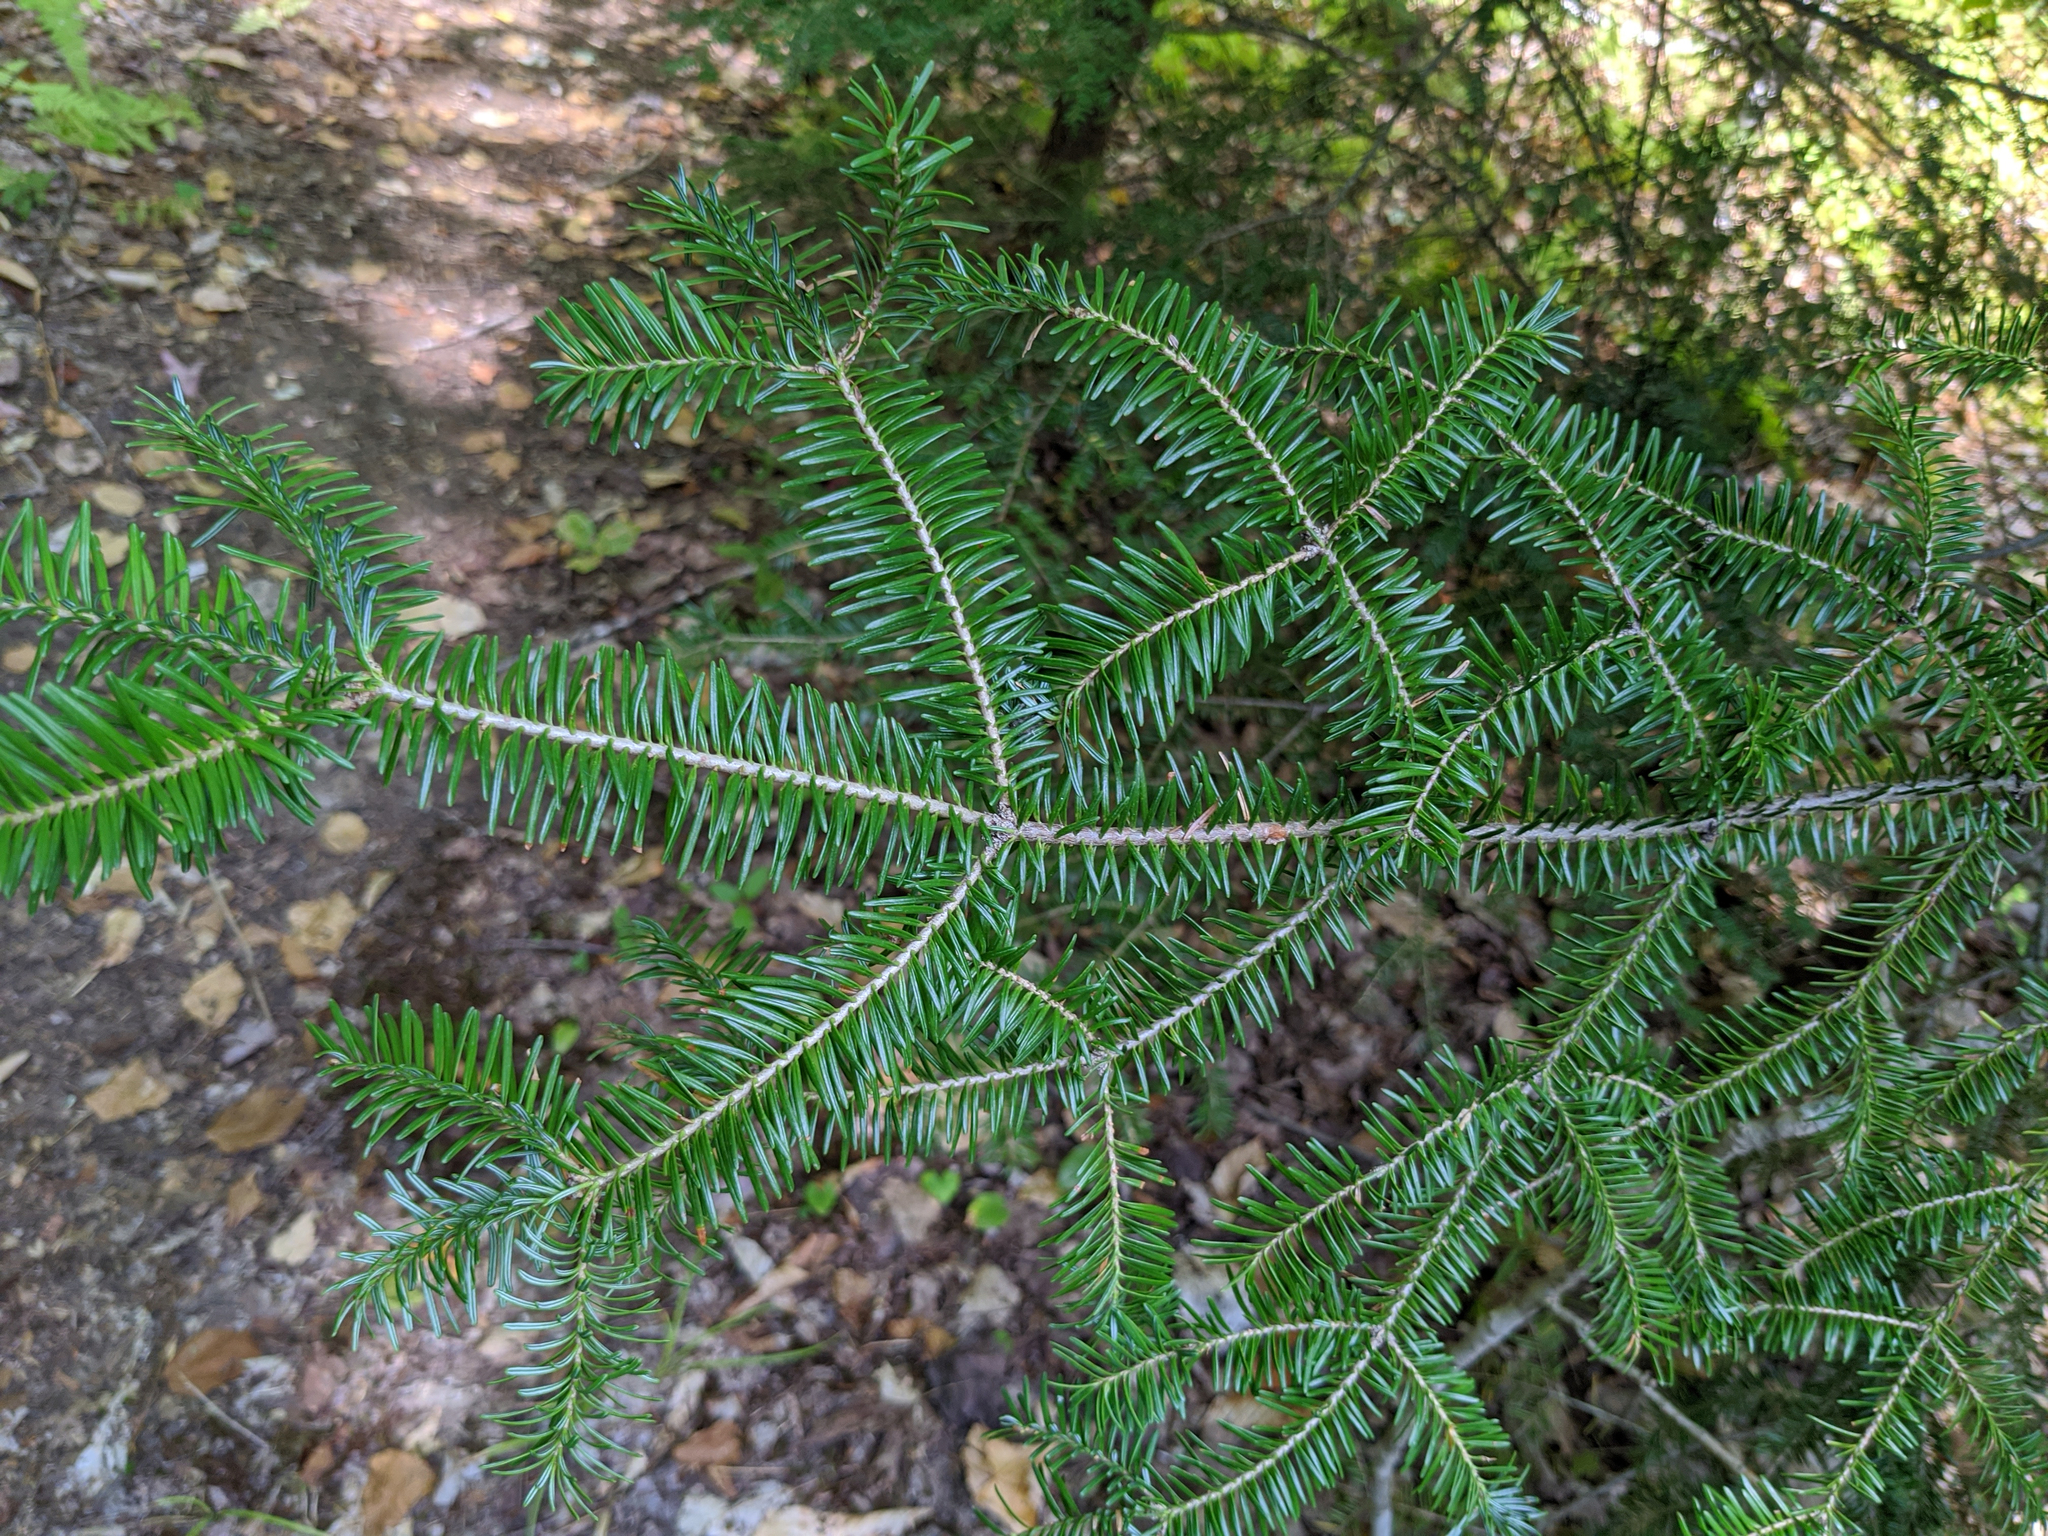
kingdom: Plantae
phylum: Tracheophyta
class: Pinopsida
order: Pinales
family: Pinaceae
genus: Abies
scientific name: Abies balsamea
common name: Balsam fir
